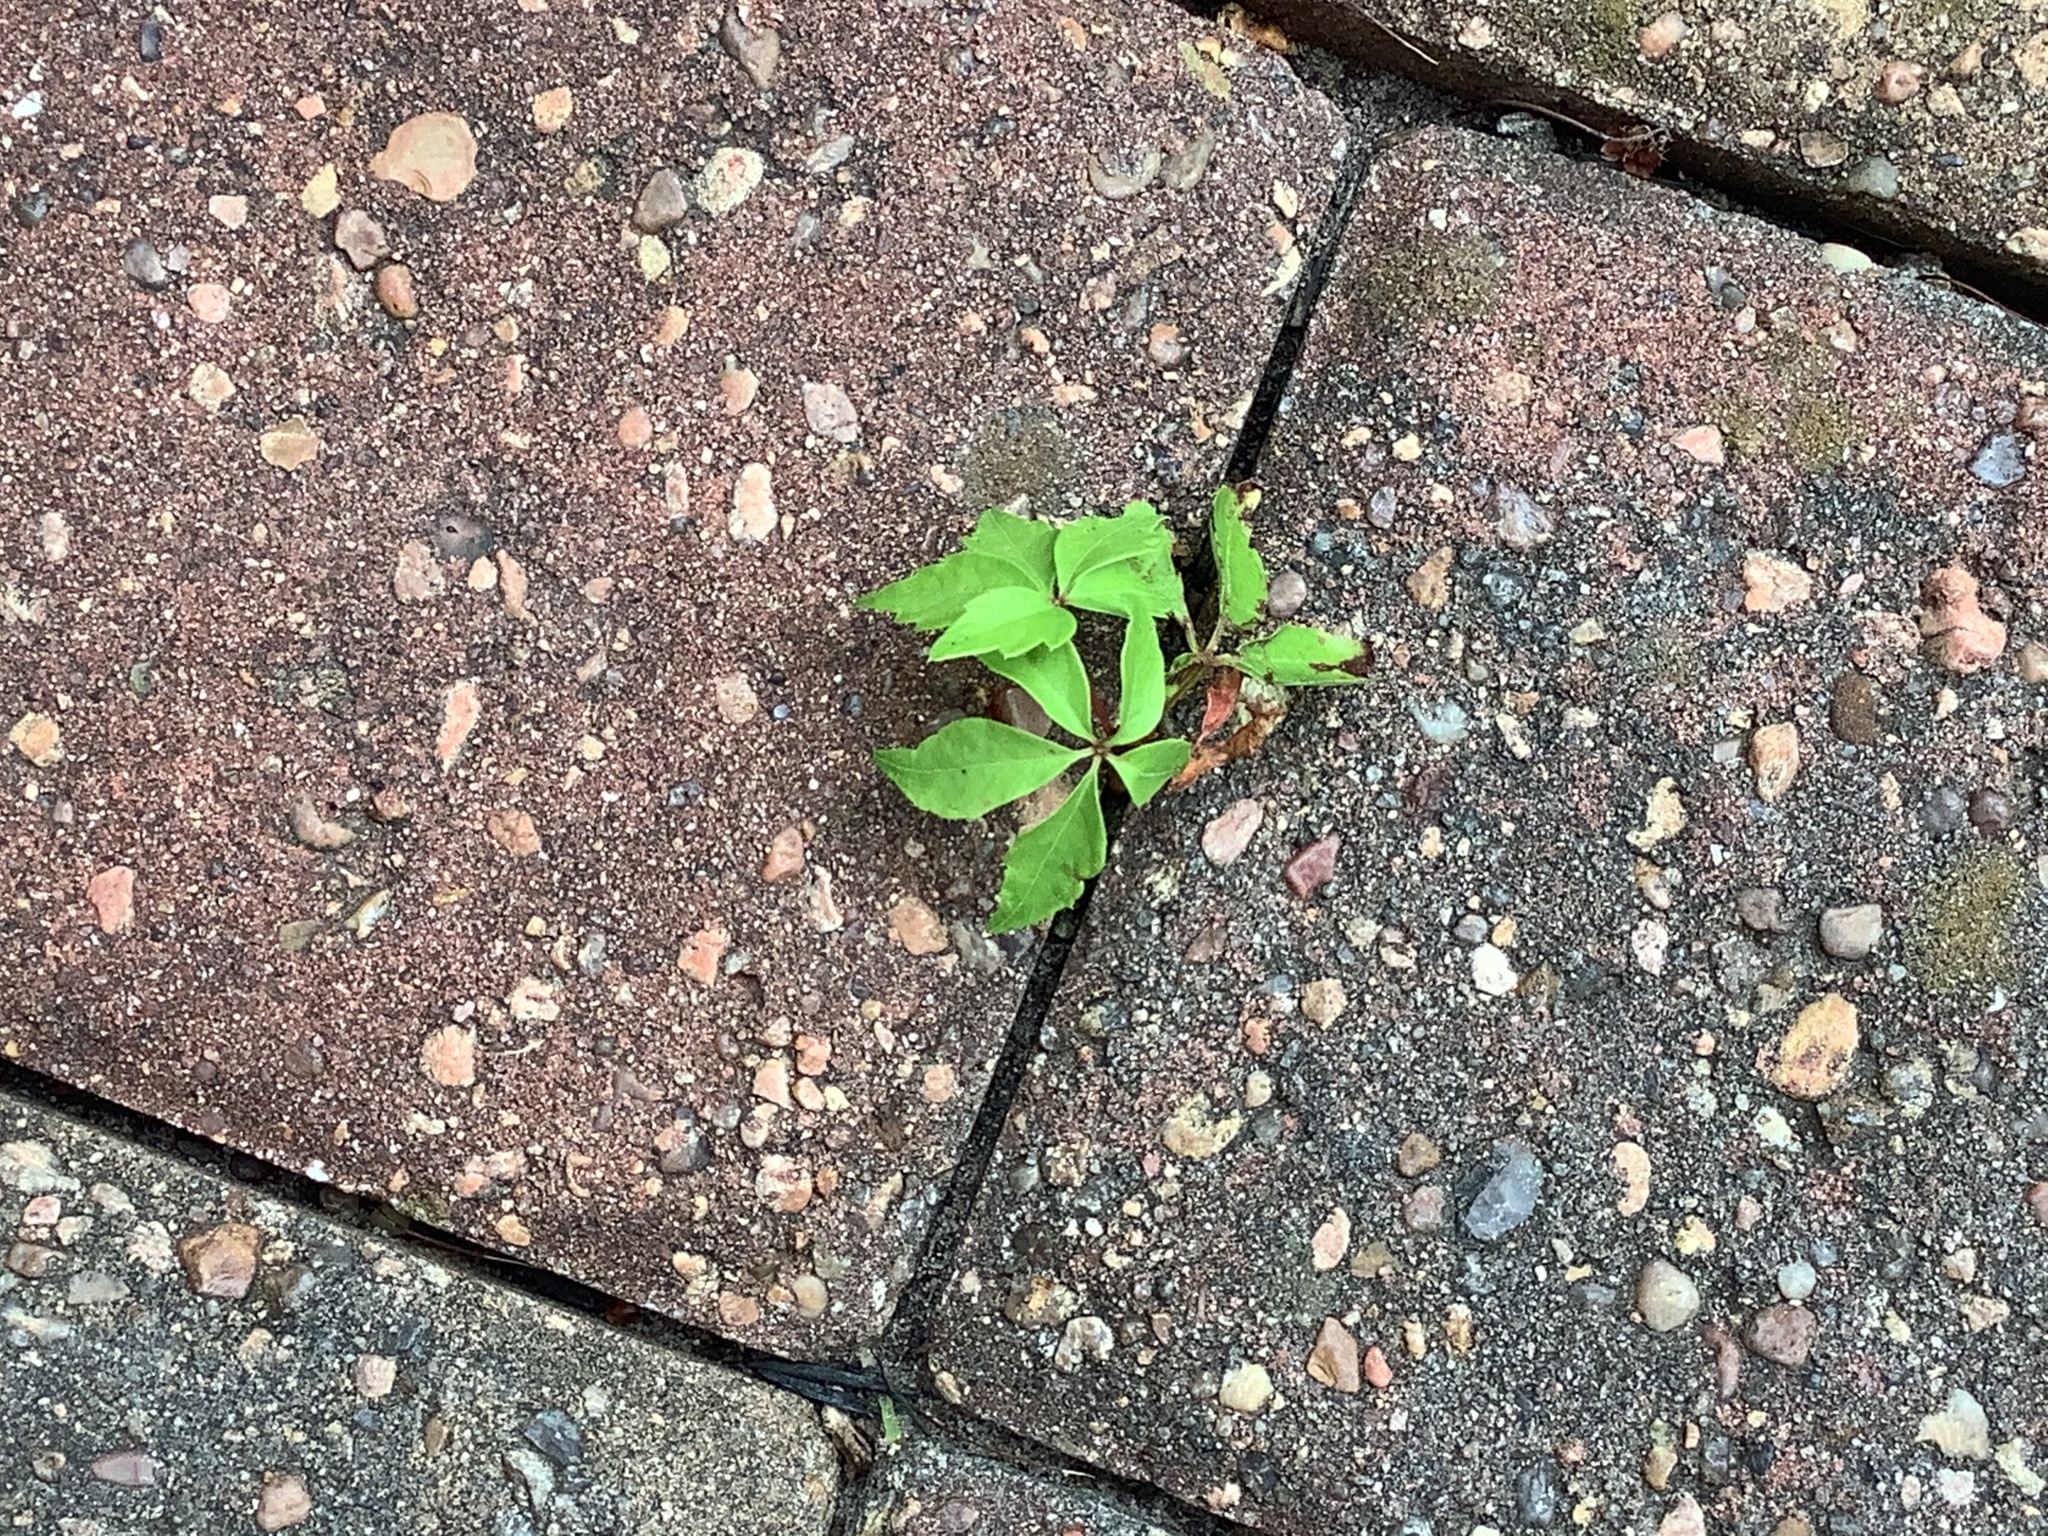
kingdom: Plantae
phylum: Tracheophyta
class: Magnoliopsida
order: Vitales
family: Vitaceae
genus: Parthenocissus
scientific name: Parthenocissus quinquefolia
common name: Virginia-creeper
